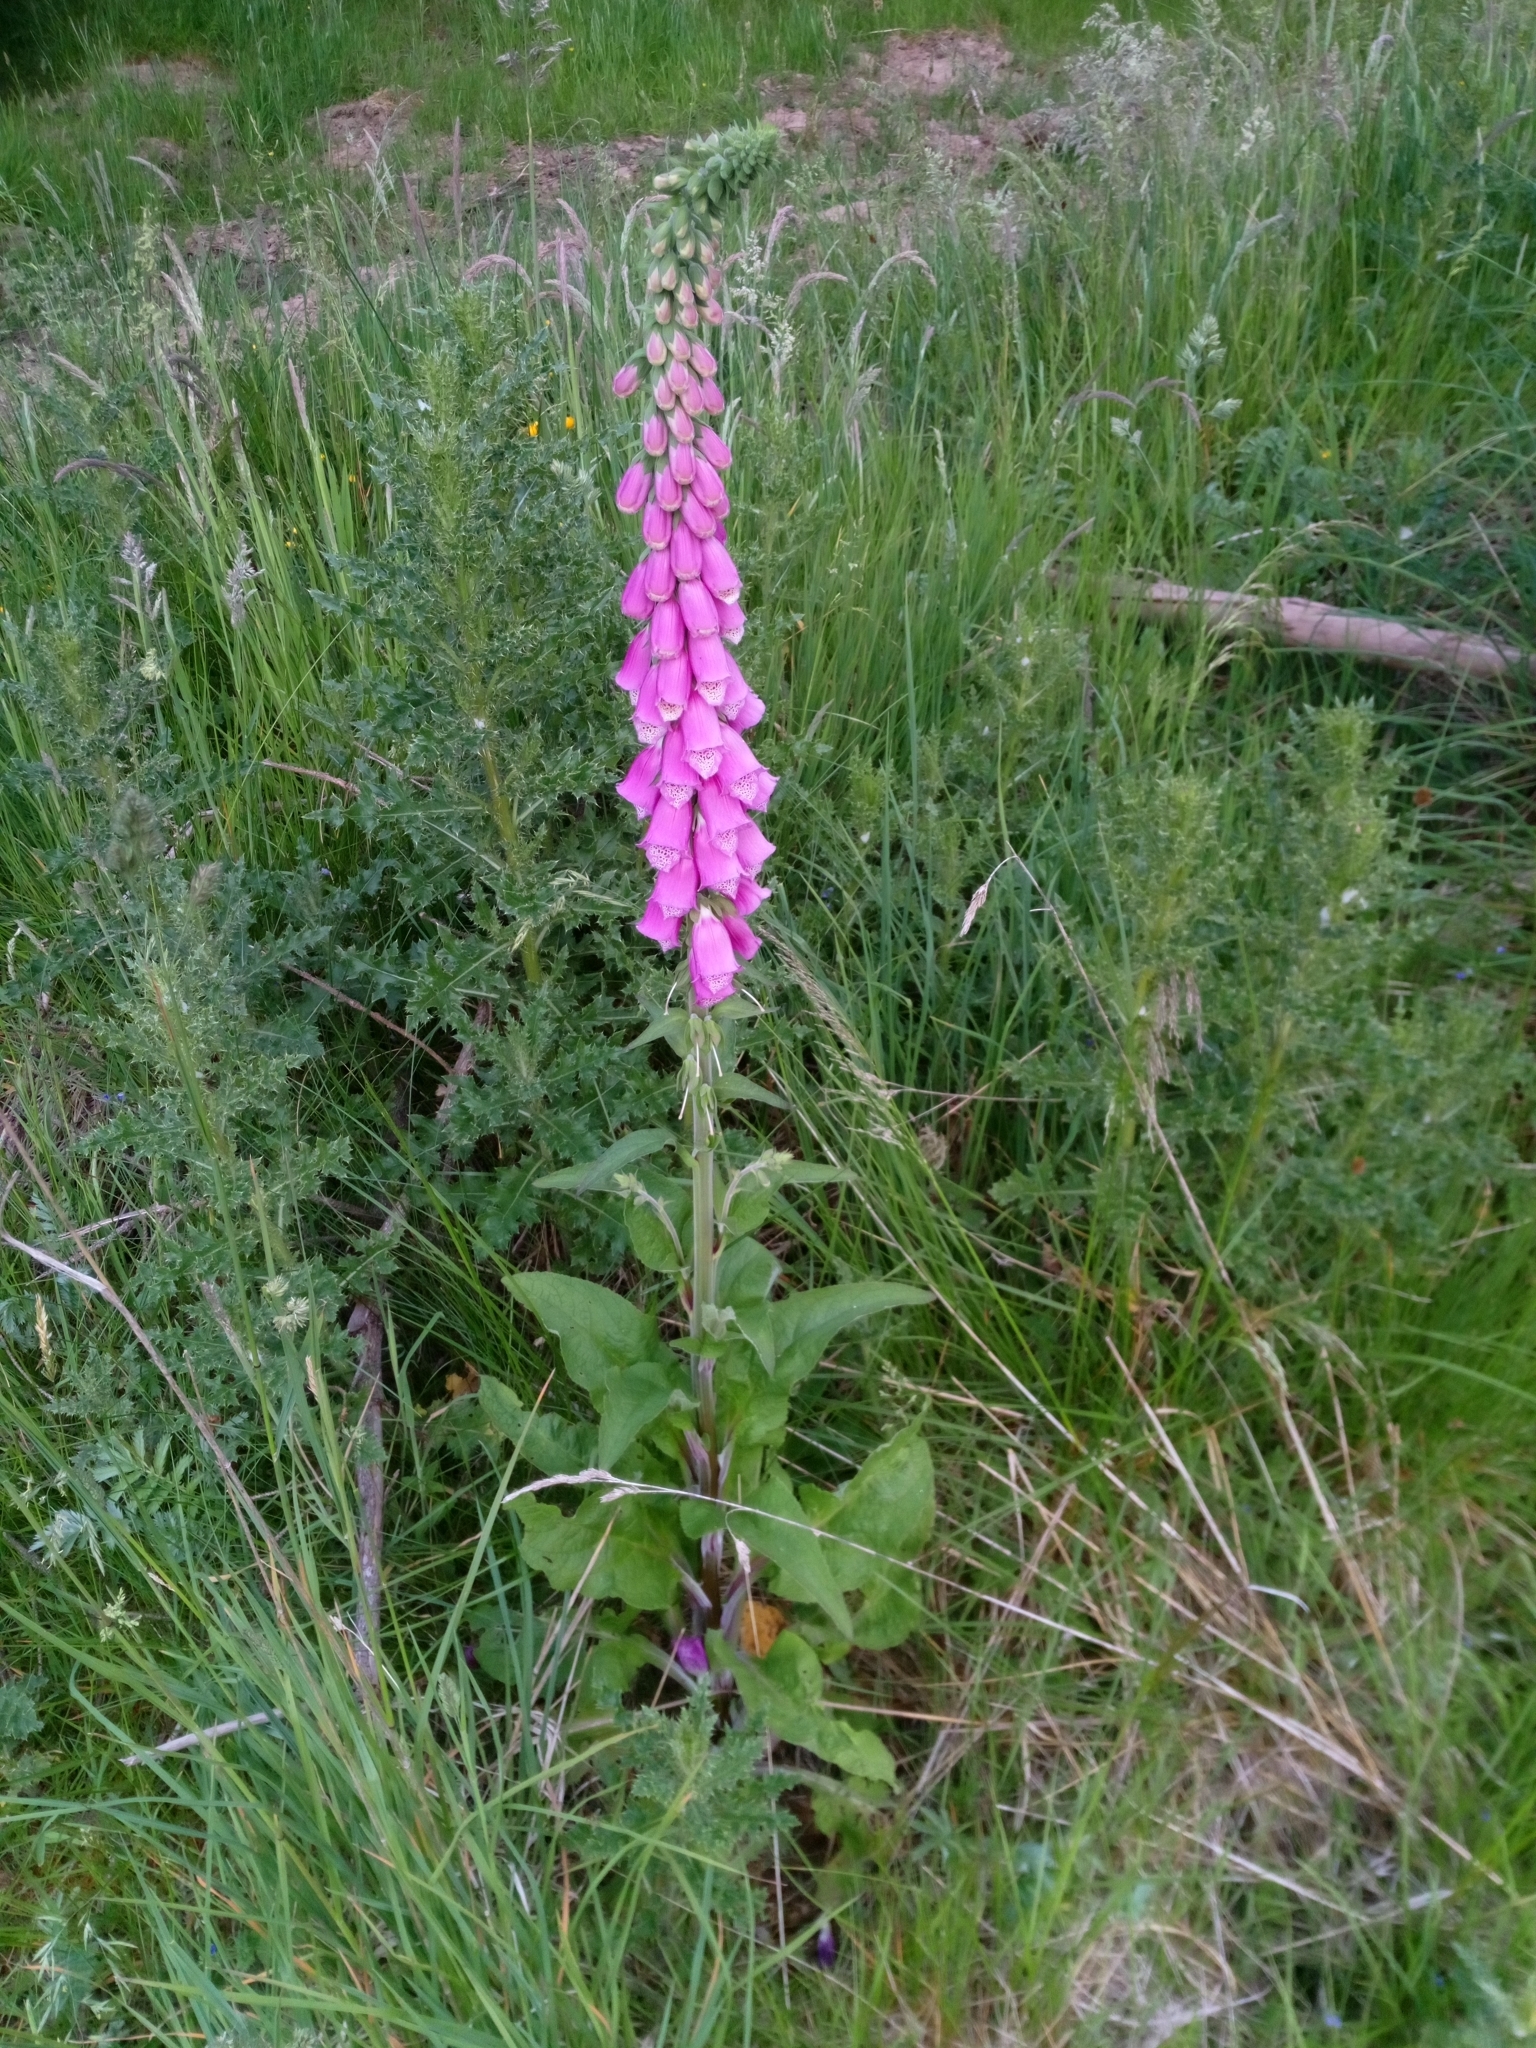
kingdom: Plantae
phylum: Tracheophyta
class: Magnoliopsida
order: Lamiales
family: Plantaginaceae
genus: Digitalis
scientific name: Digitalis purpurea
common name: Foxglove
